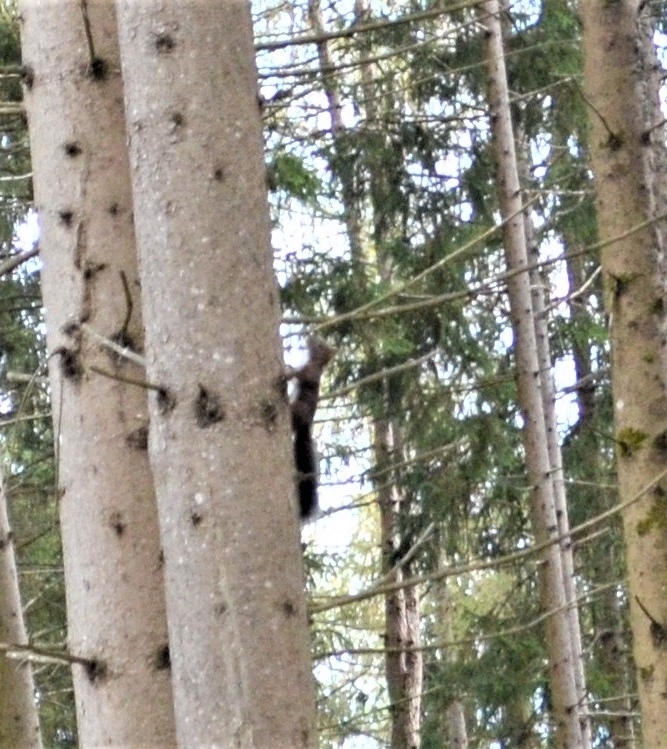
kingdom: Animalia
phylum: Chordata
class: Mammalia
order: Rodentia
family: Sciuridae
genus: Sciurus
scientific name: Sciurus vulgaris
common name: Eurasian red squirrel
